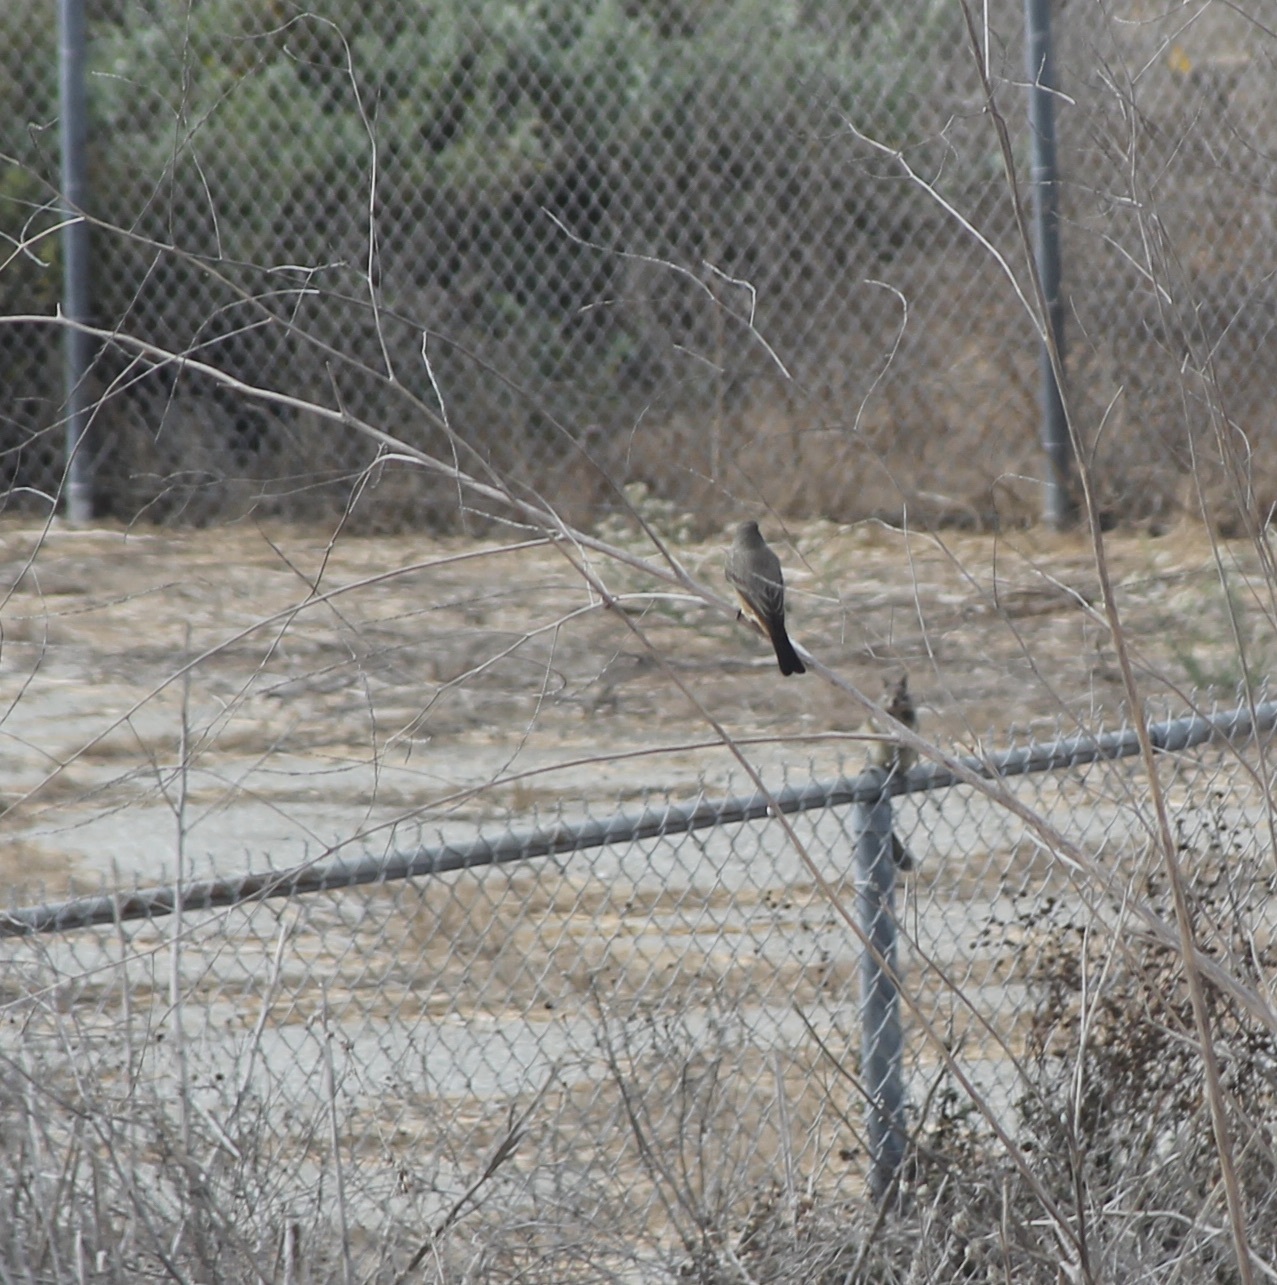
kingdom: Animalia
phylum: Chordata
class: Aves
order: Passeriformes
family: Tyrannidae
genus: Sayornis
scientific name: Sayornis saya
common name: Say's phoebe
